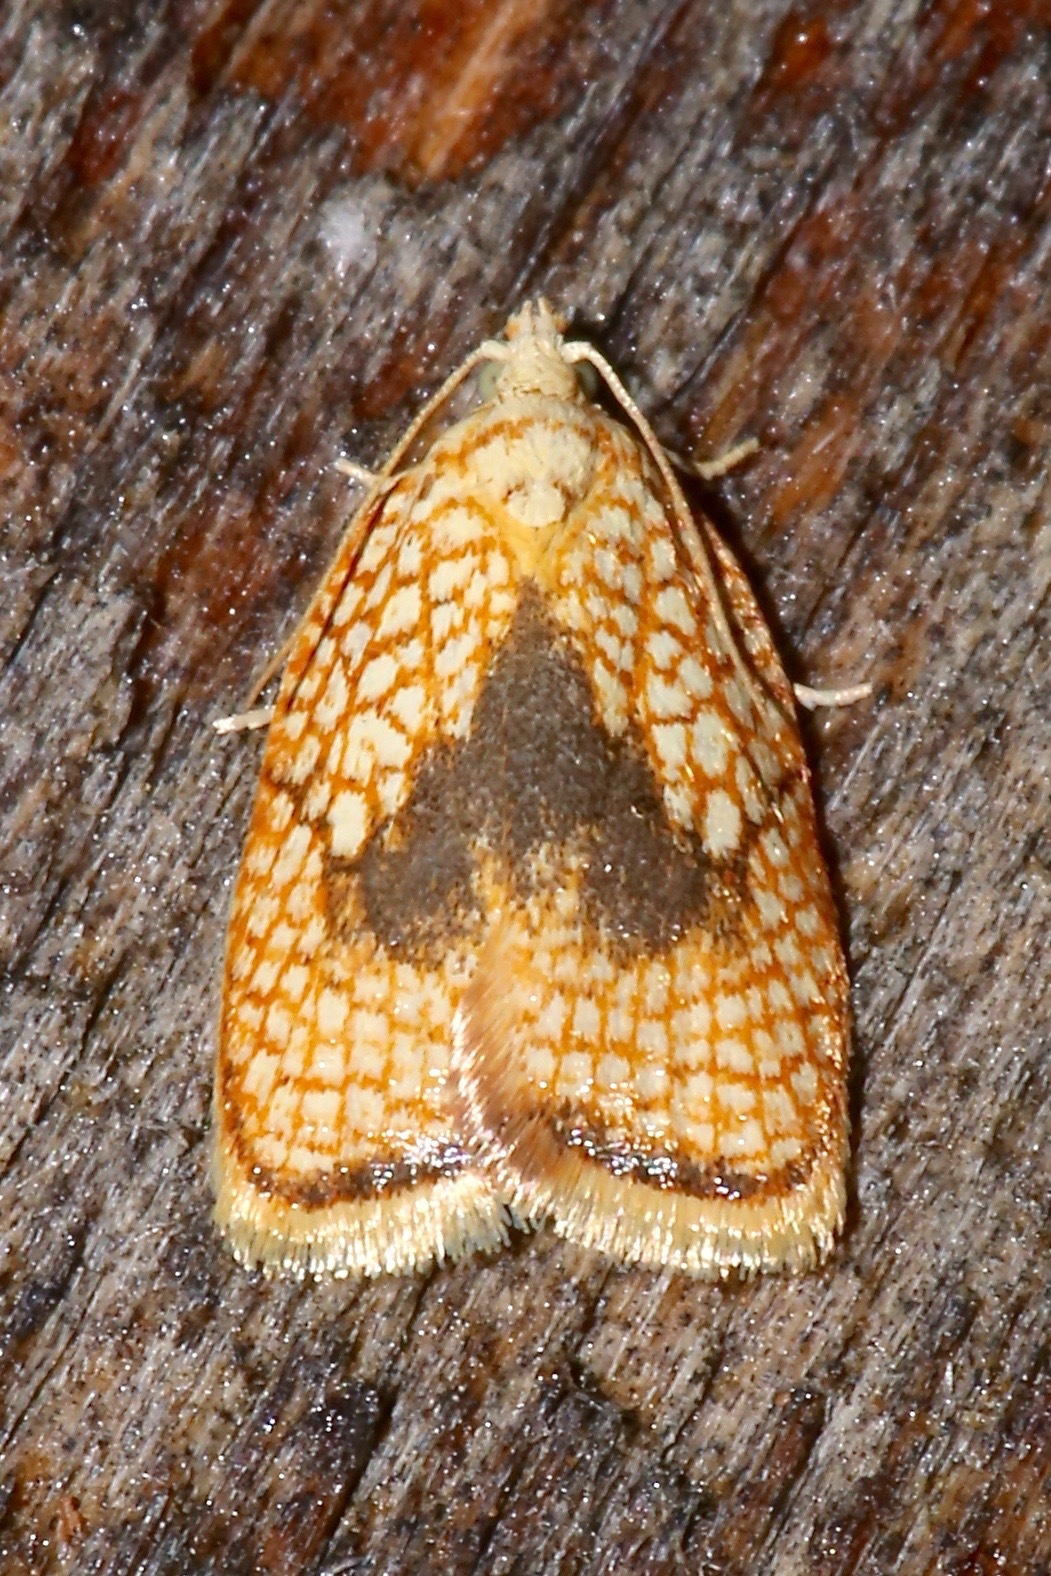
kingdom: Animalia
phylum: Arthropoda
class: Insecta
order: Lepidoptera
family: Tortricidae
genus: Acleris
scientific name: Acleris forsskaleana
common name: Maple button
